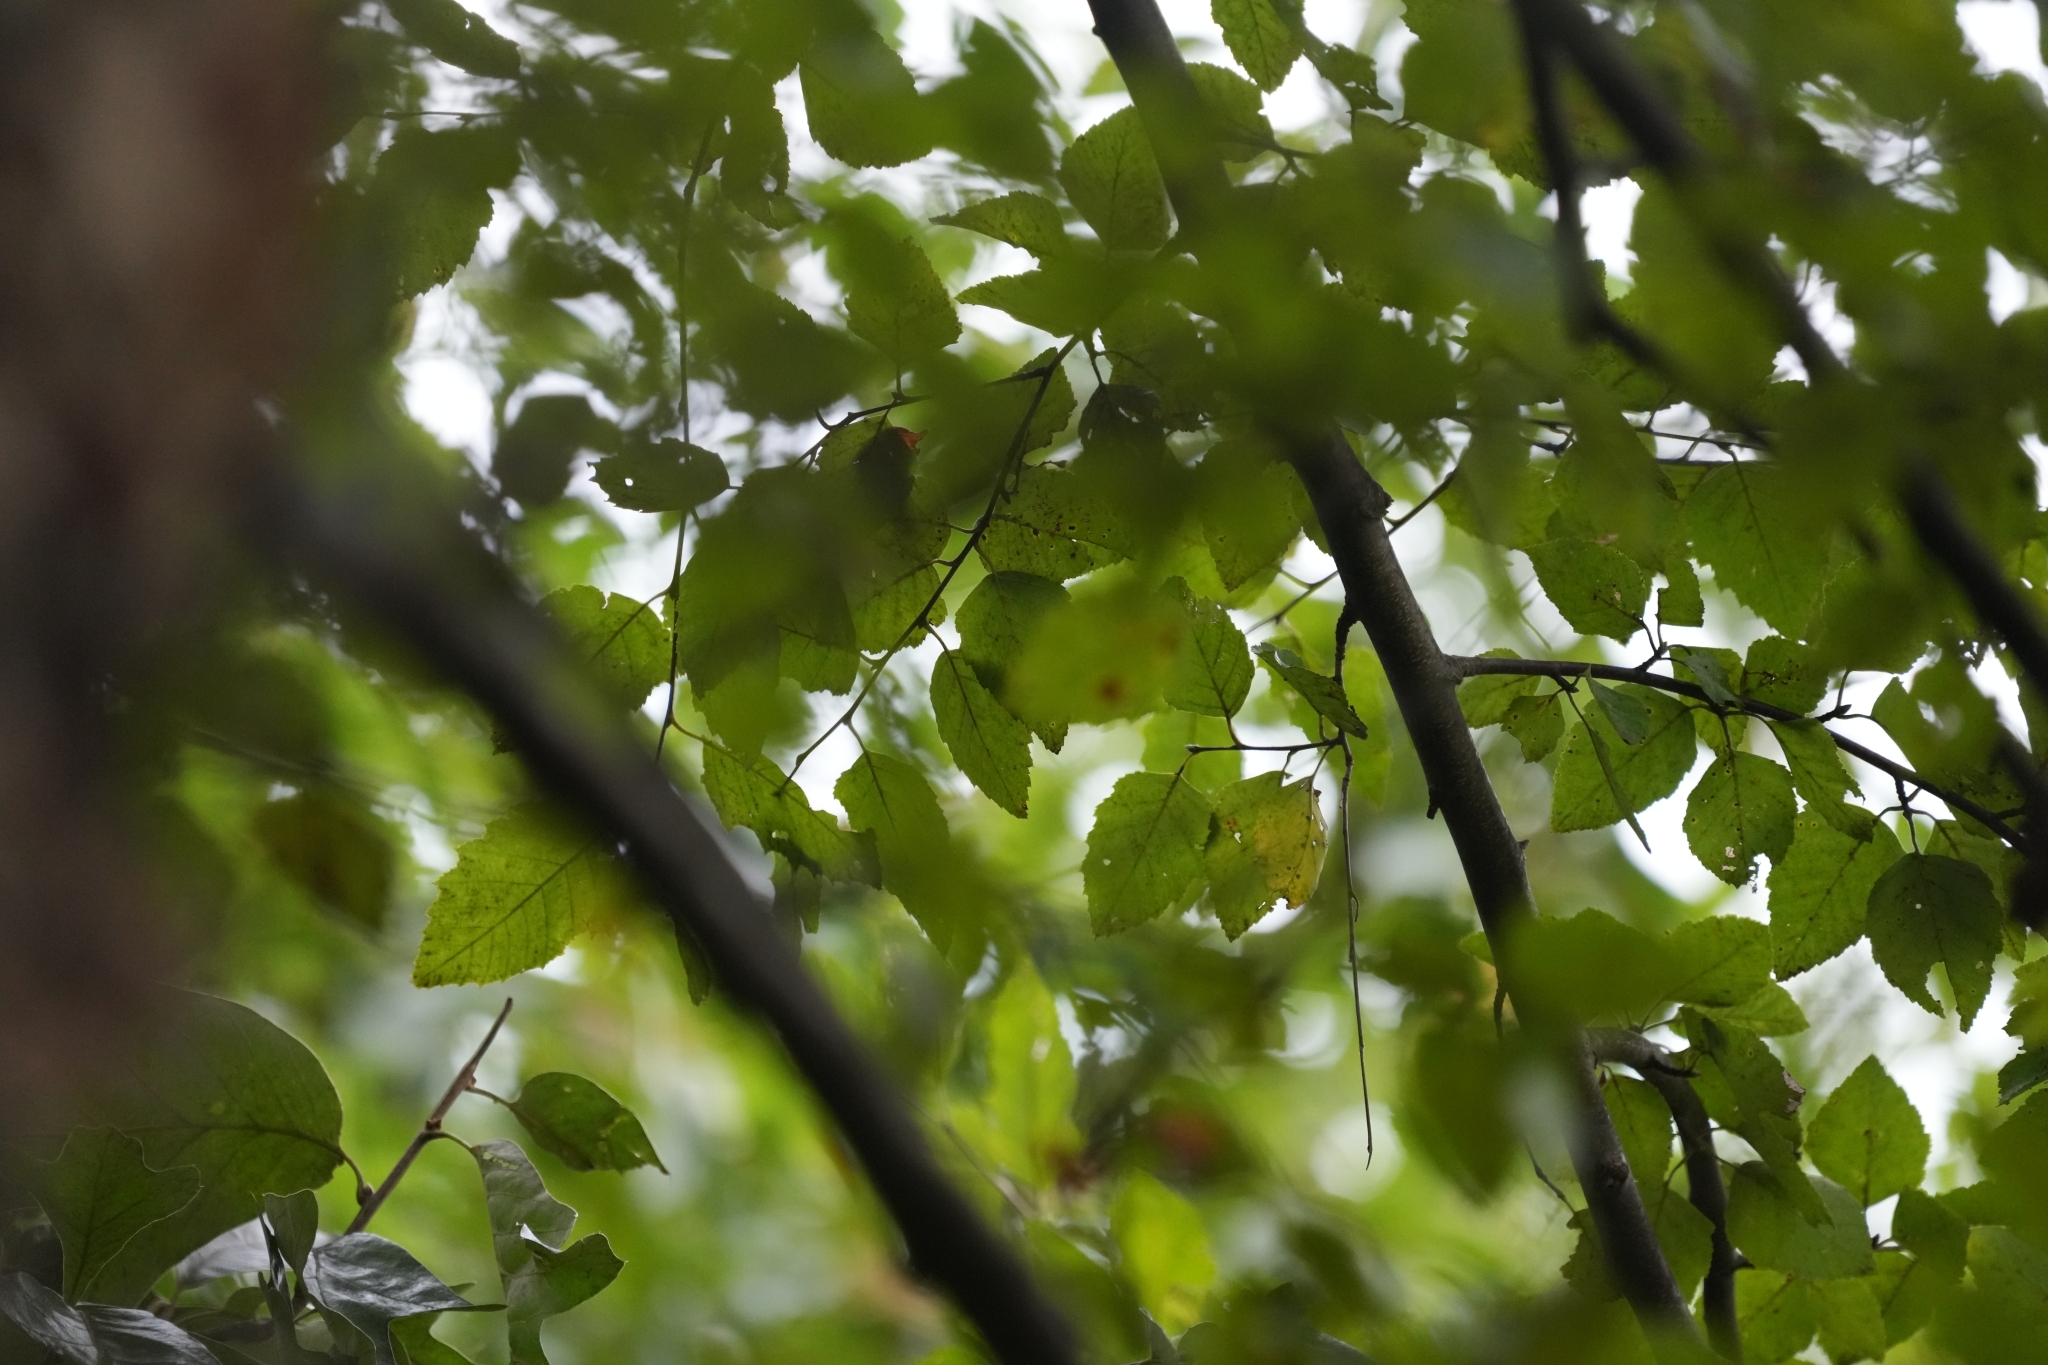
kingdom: Plantae
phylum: Tracheophyta
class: Magnoliopsida
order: Fagales
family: Betulaceae
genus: Betula
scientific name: Betula nigra
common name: Black birch
